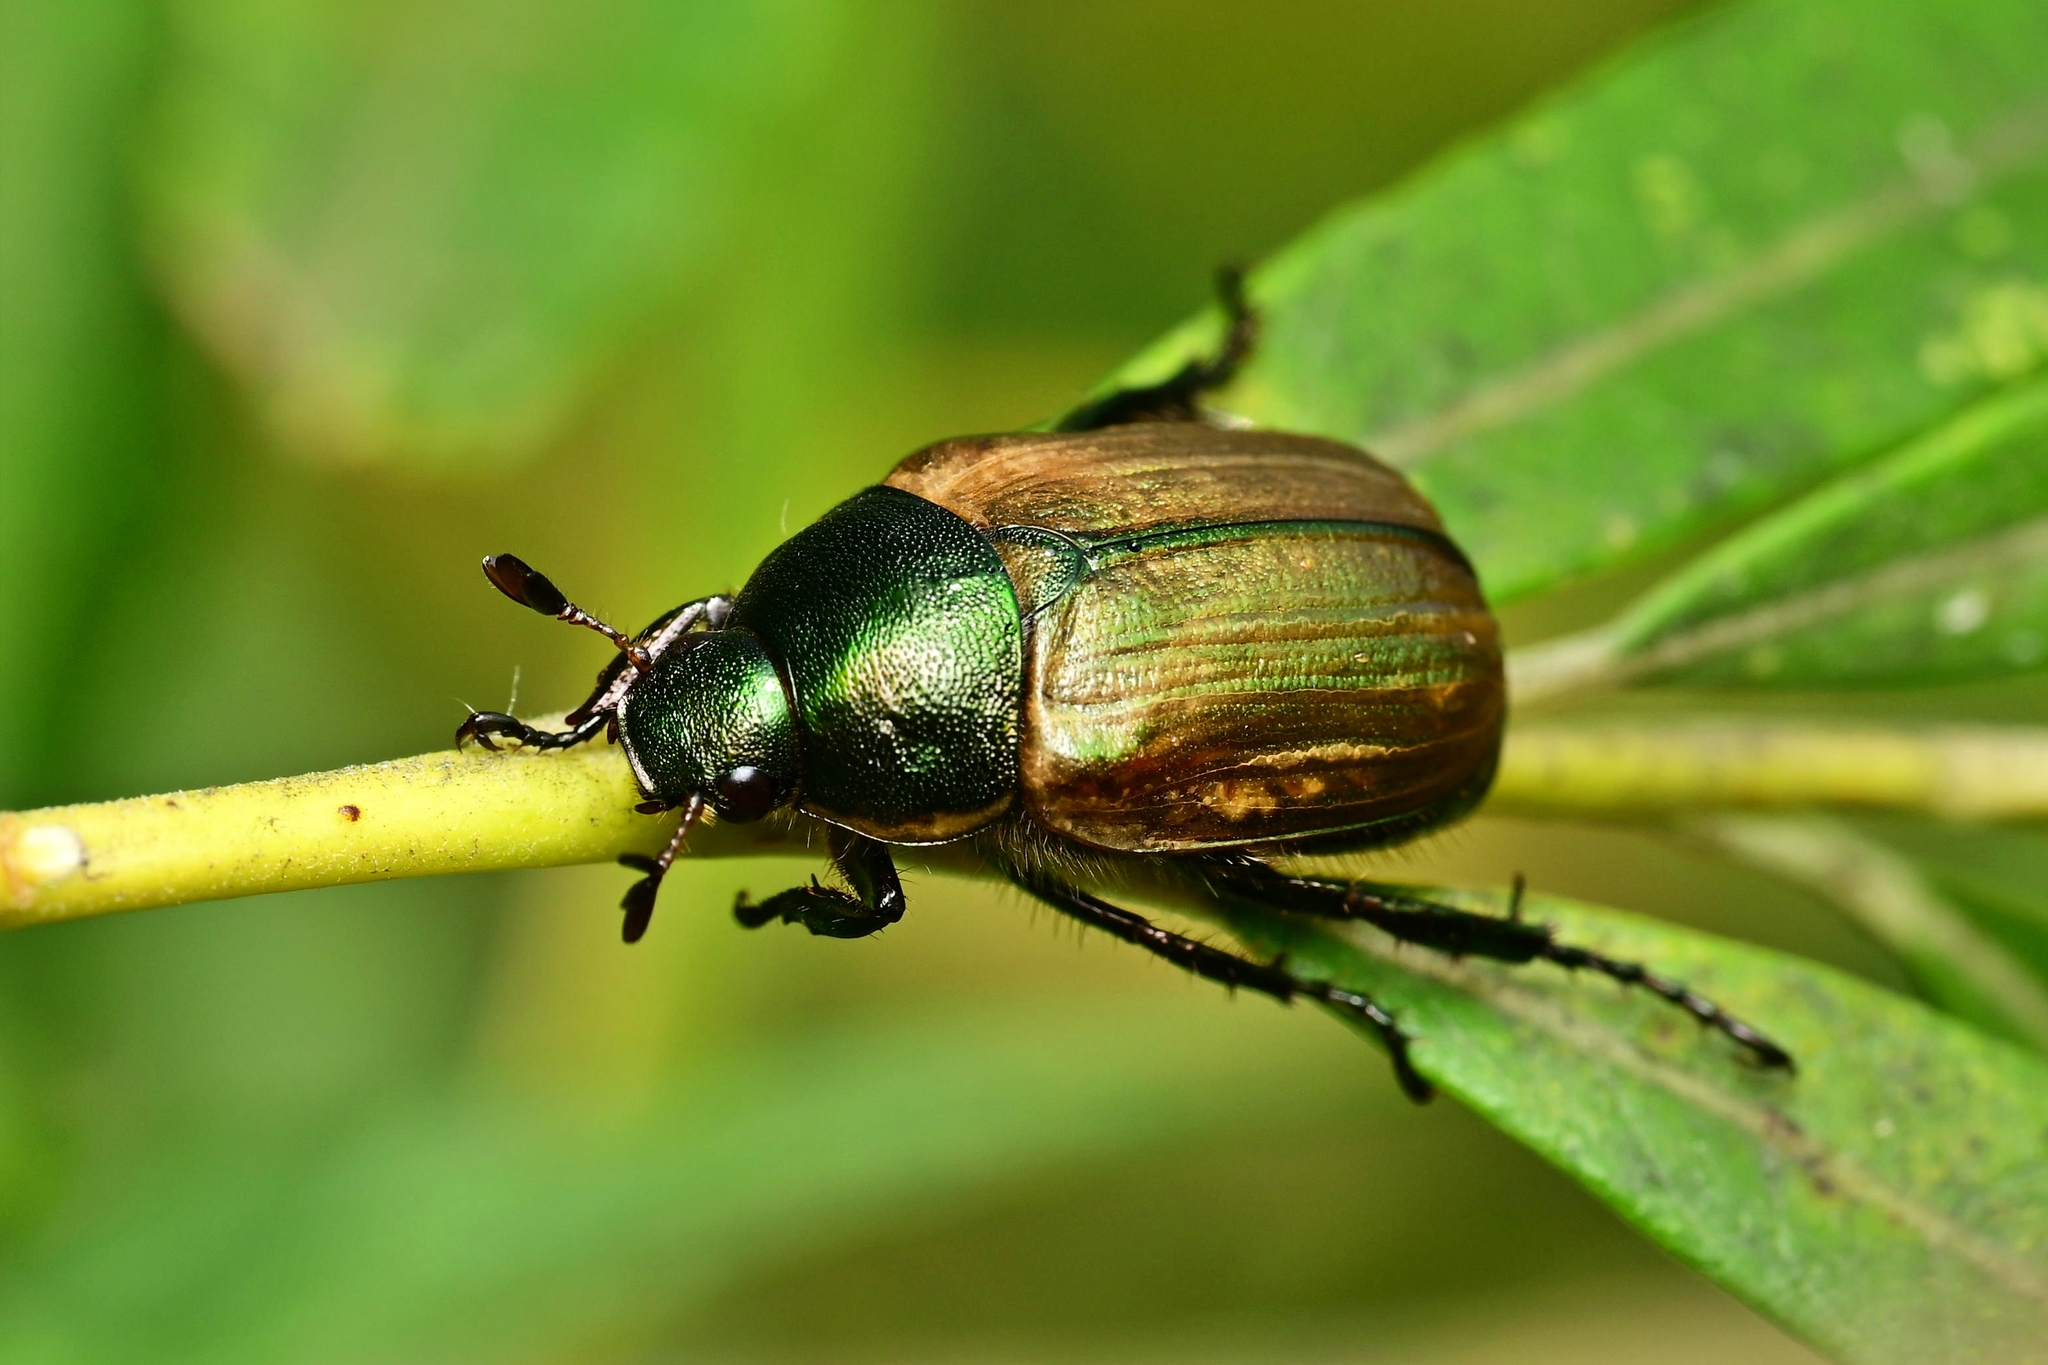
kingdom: Animalia
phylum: Arthropoda
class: Insecta
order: Coleoptera
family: Scarabaeidae
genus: Anomala
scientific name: Anomala dubia
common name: Dune chafer
